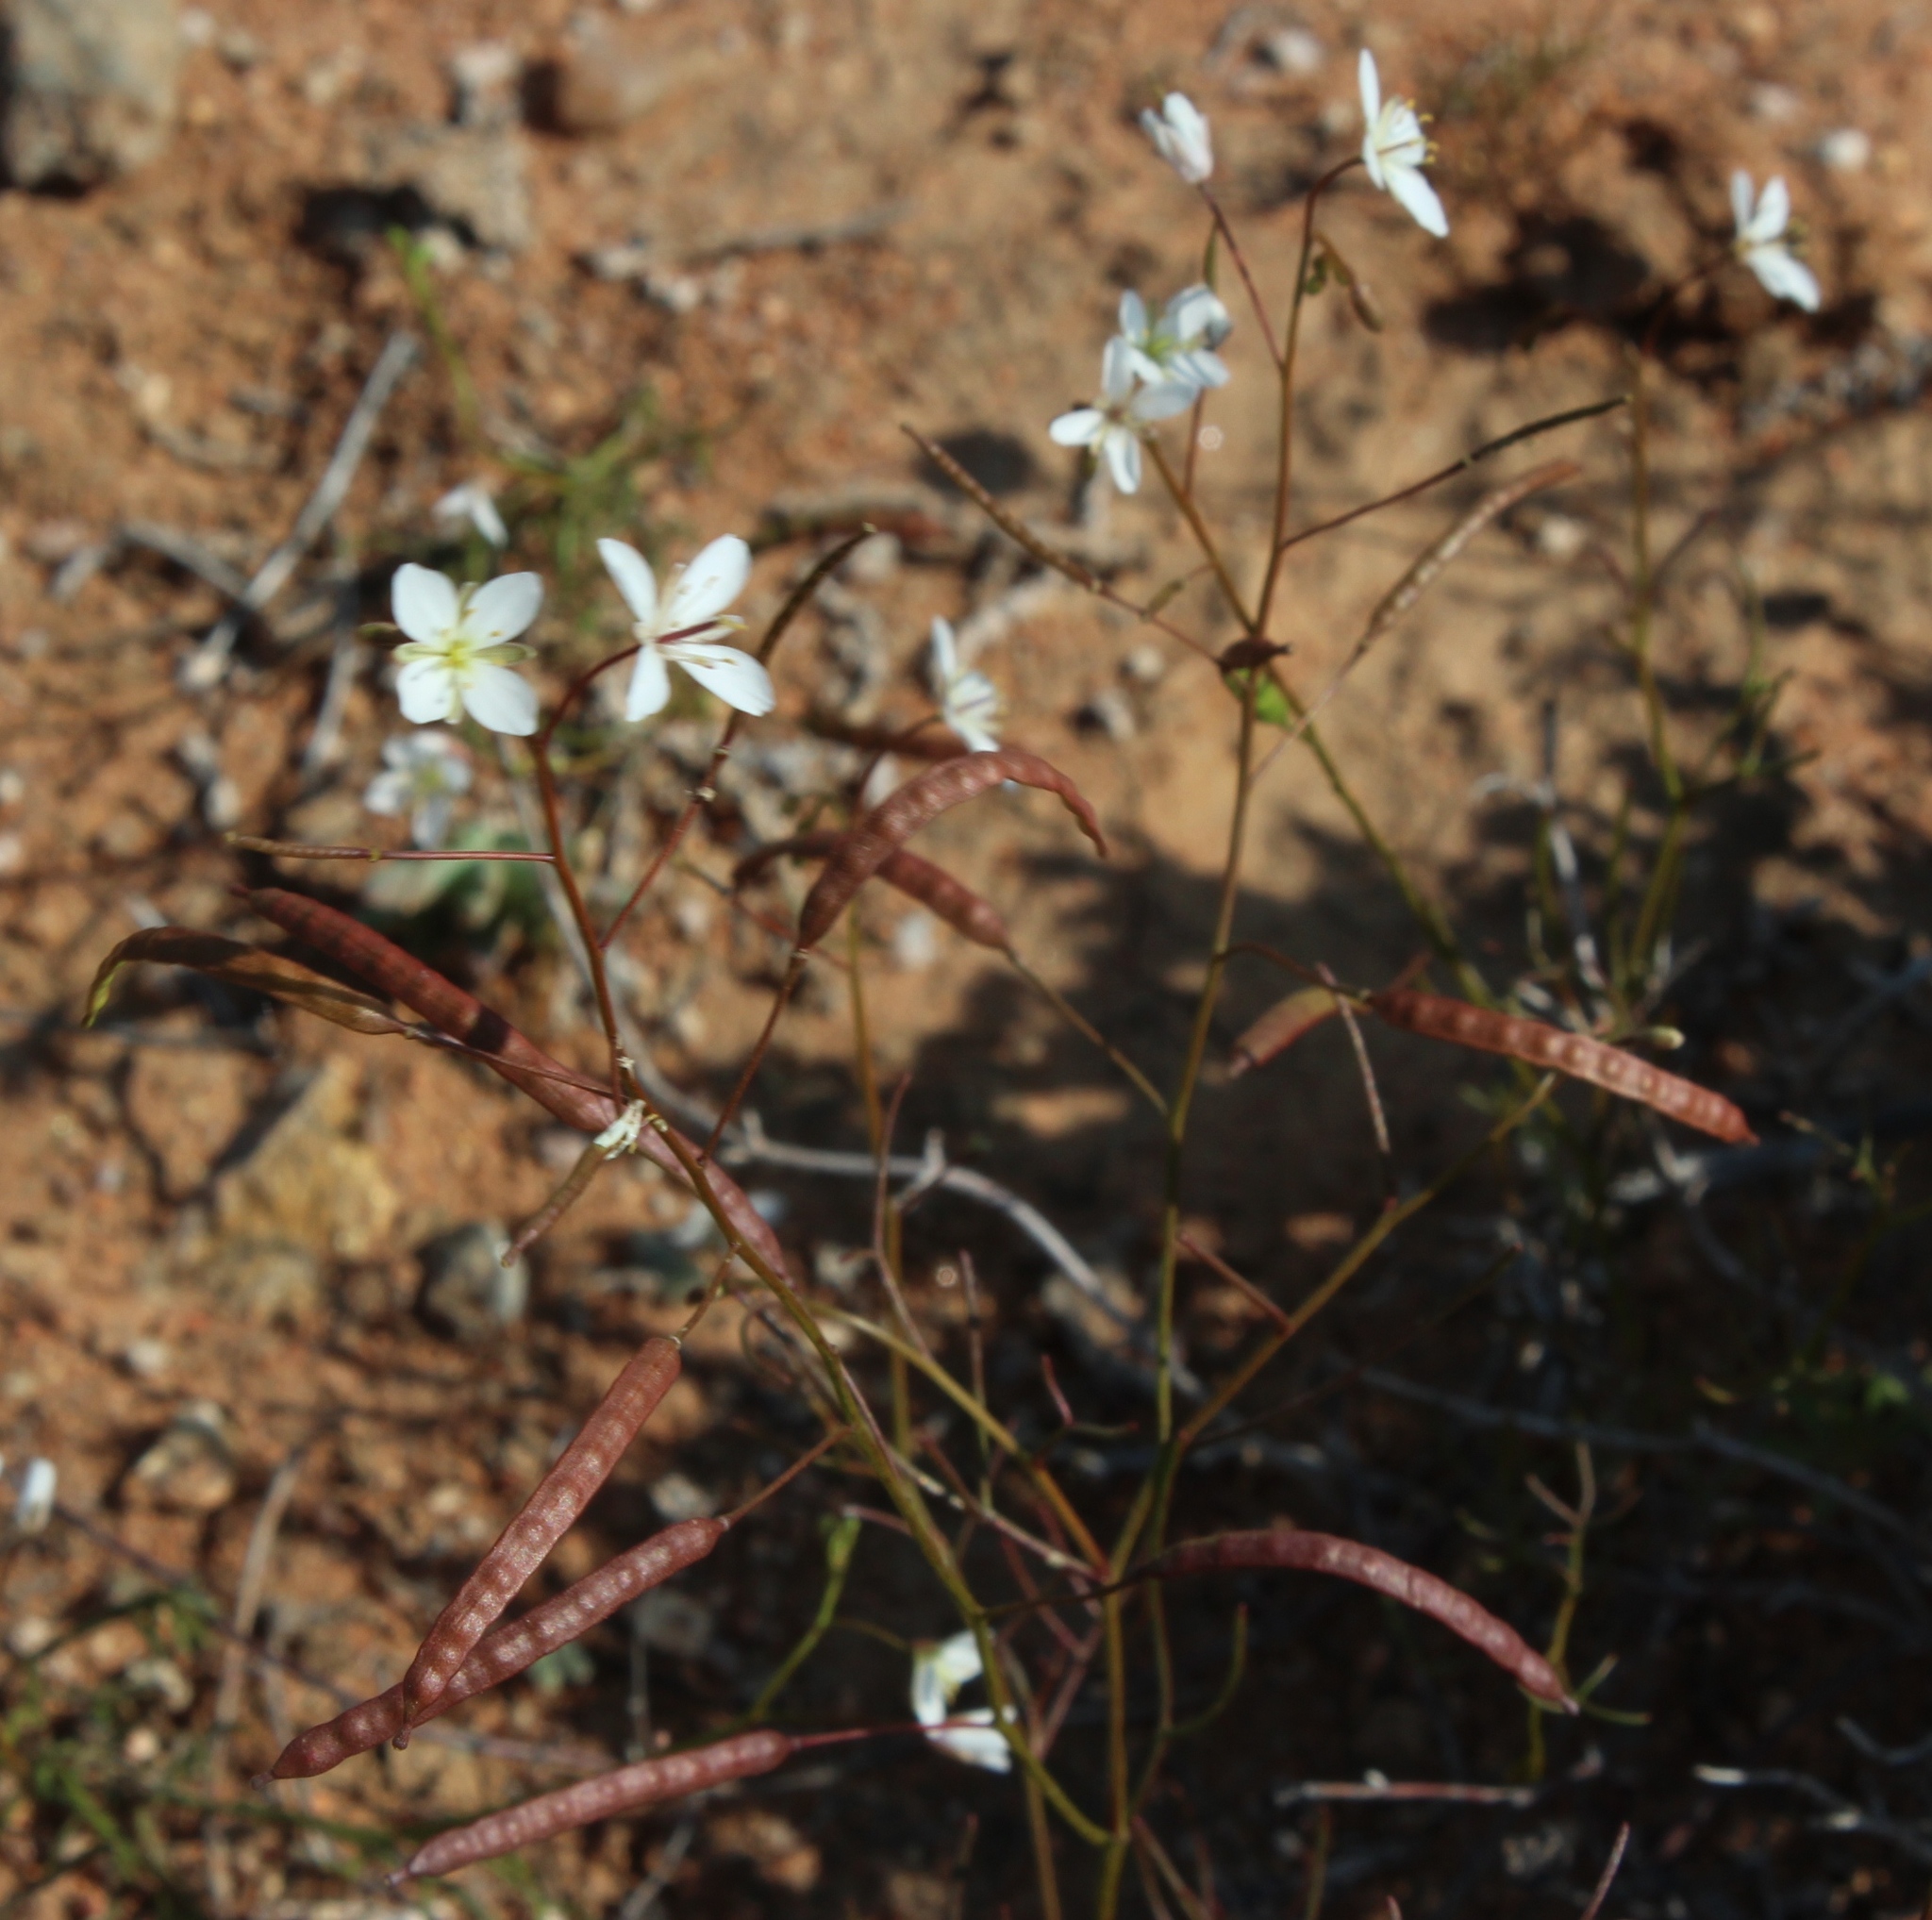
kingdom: Plantae
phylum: Tracheophyta
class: Magnoliopsida
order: Brassicales
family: Brassicaceae
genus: Heliophila
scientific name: Heliophila variabilis
